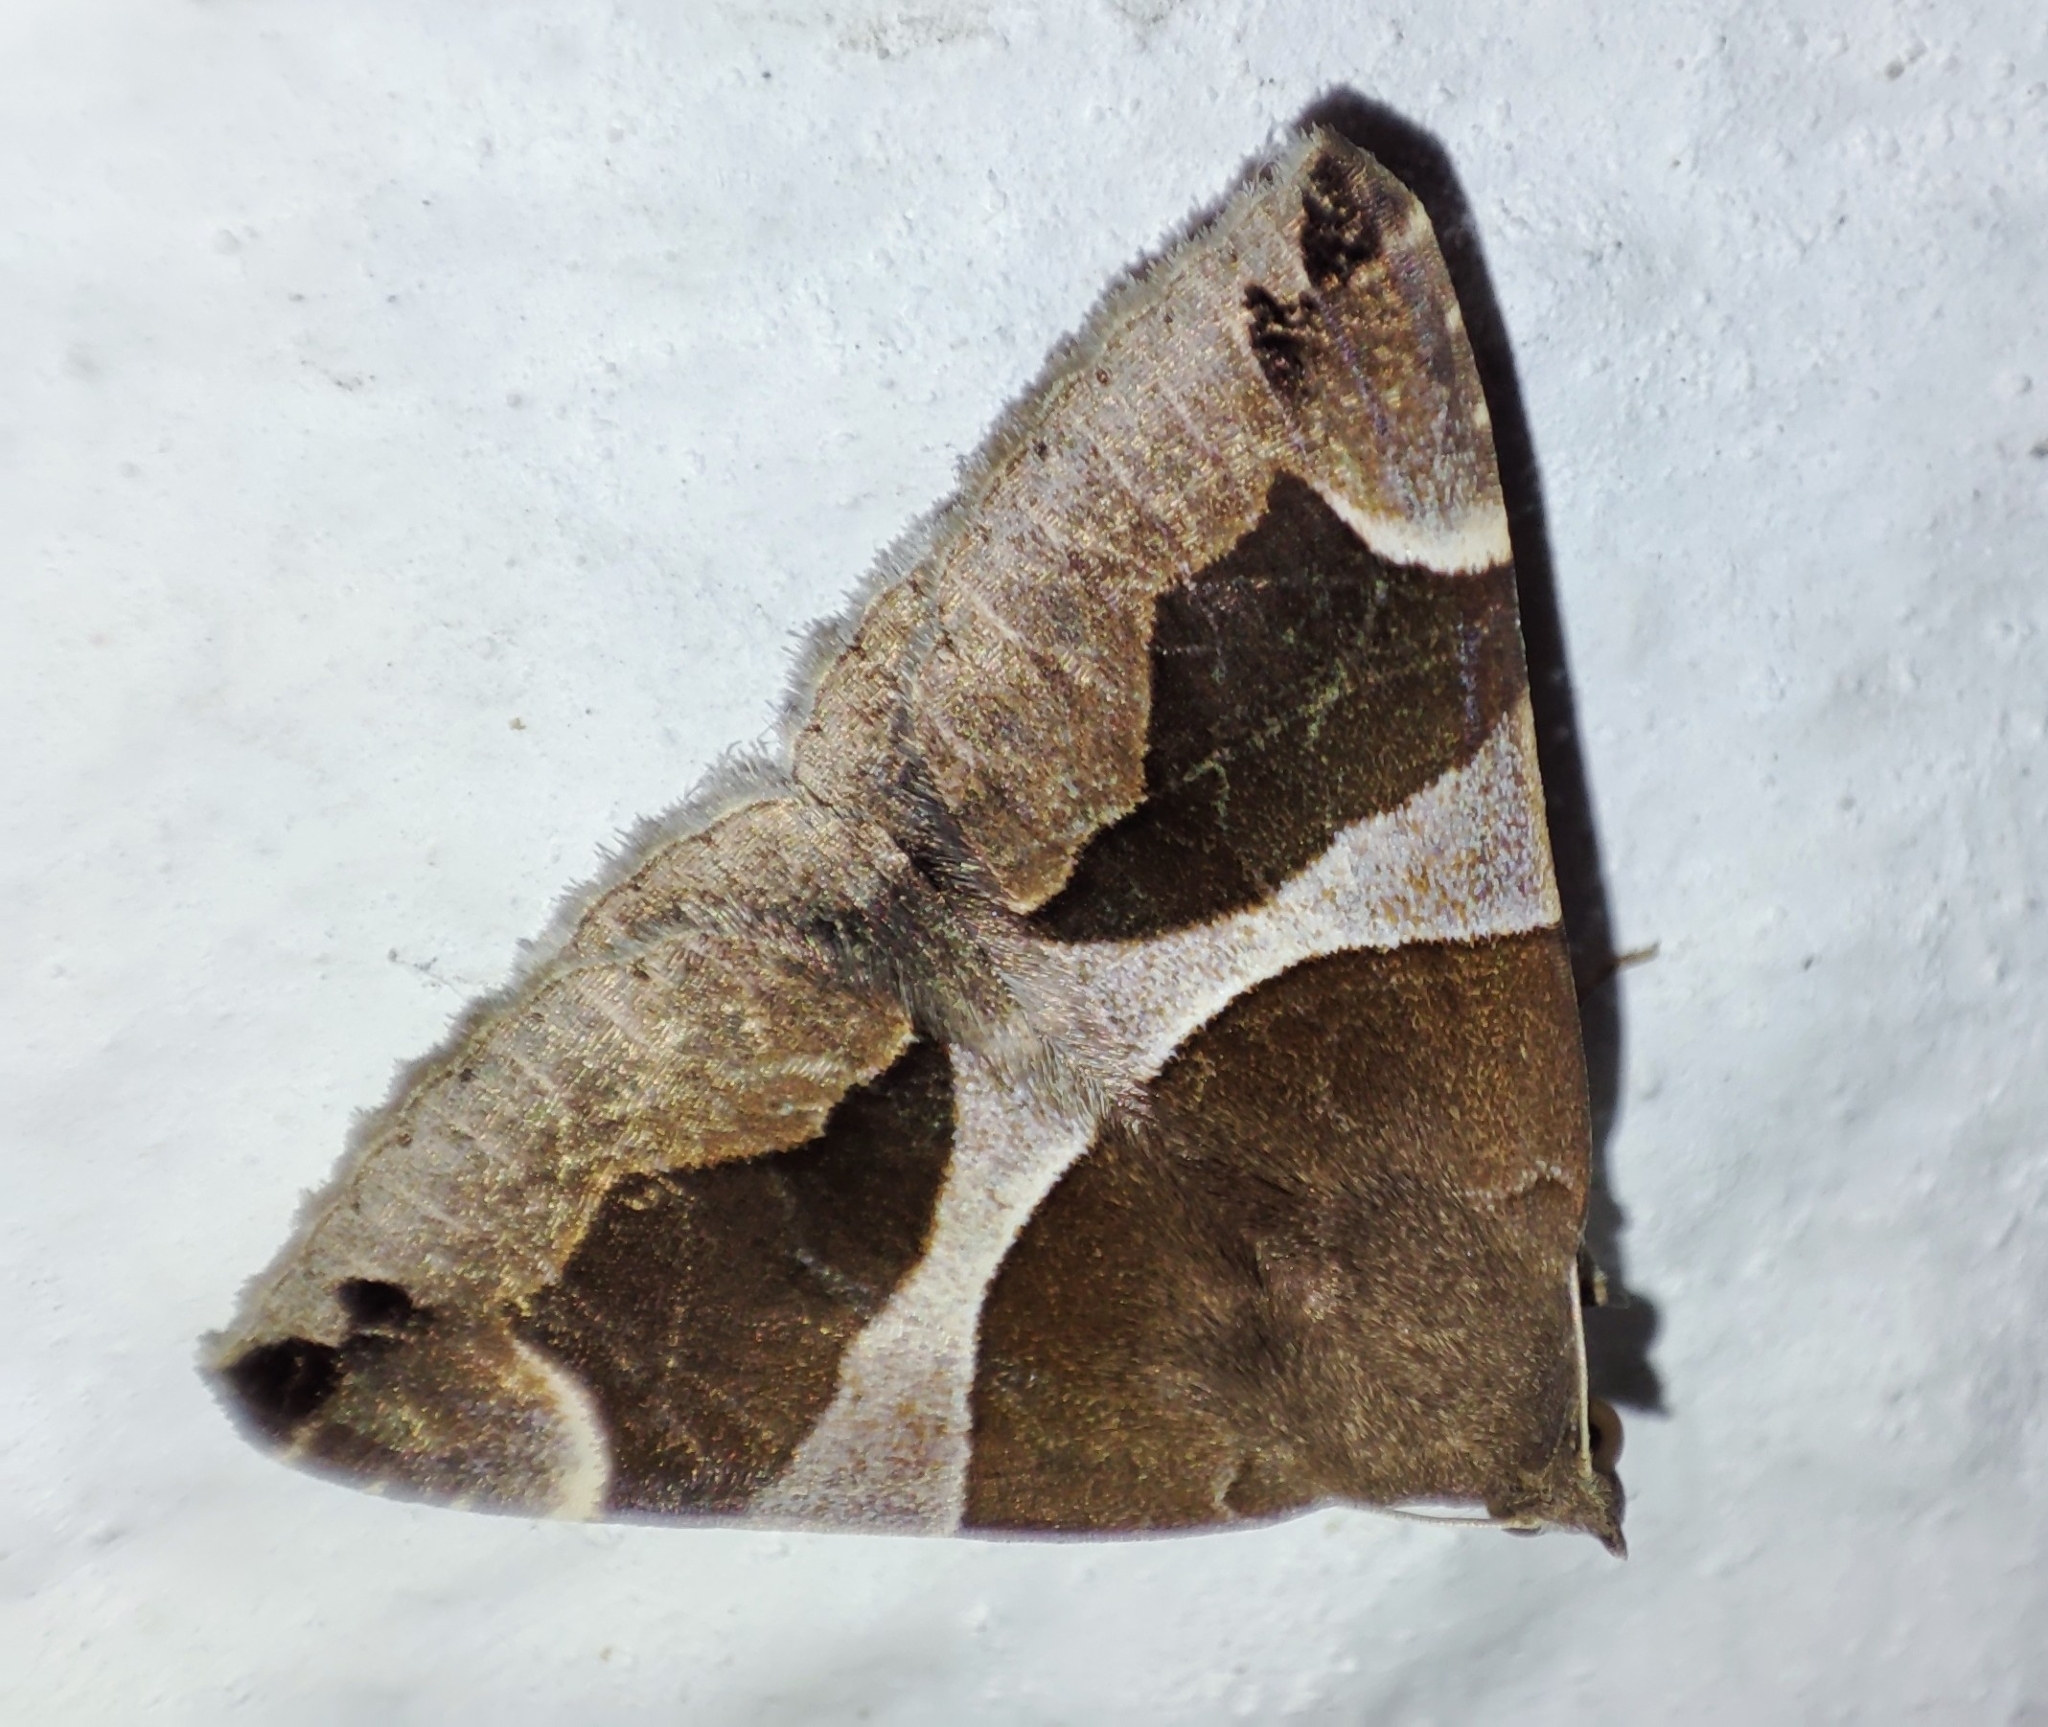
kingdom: Animalia
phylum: Arthropoda
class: Insecta
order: Lepidoptera
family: Erebidae
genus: Dysgonia
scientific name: Dysgonia algira
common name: Passenger
